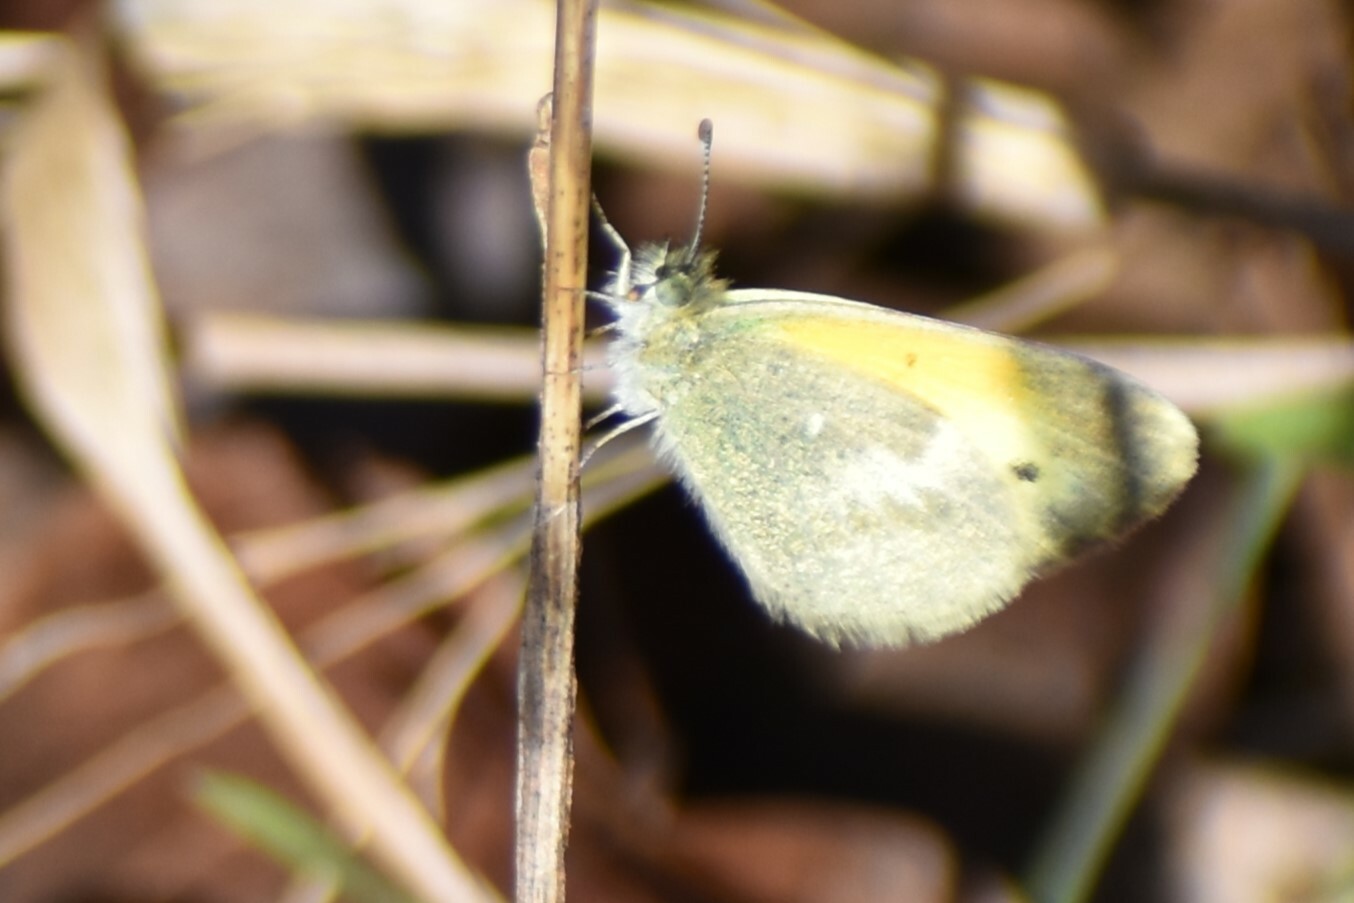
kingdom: Animalia
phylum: Arthropoda
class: Insecta
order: Lepidoptera
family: Pieridae
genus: Nathalis
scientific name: Nathalis iole
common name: Dainty sulphur
